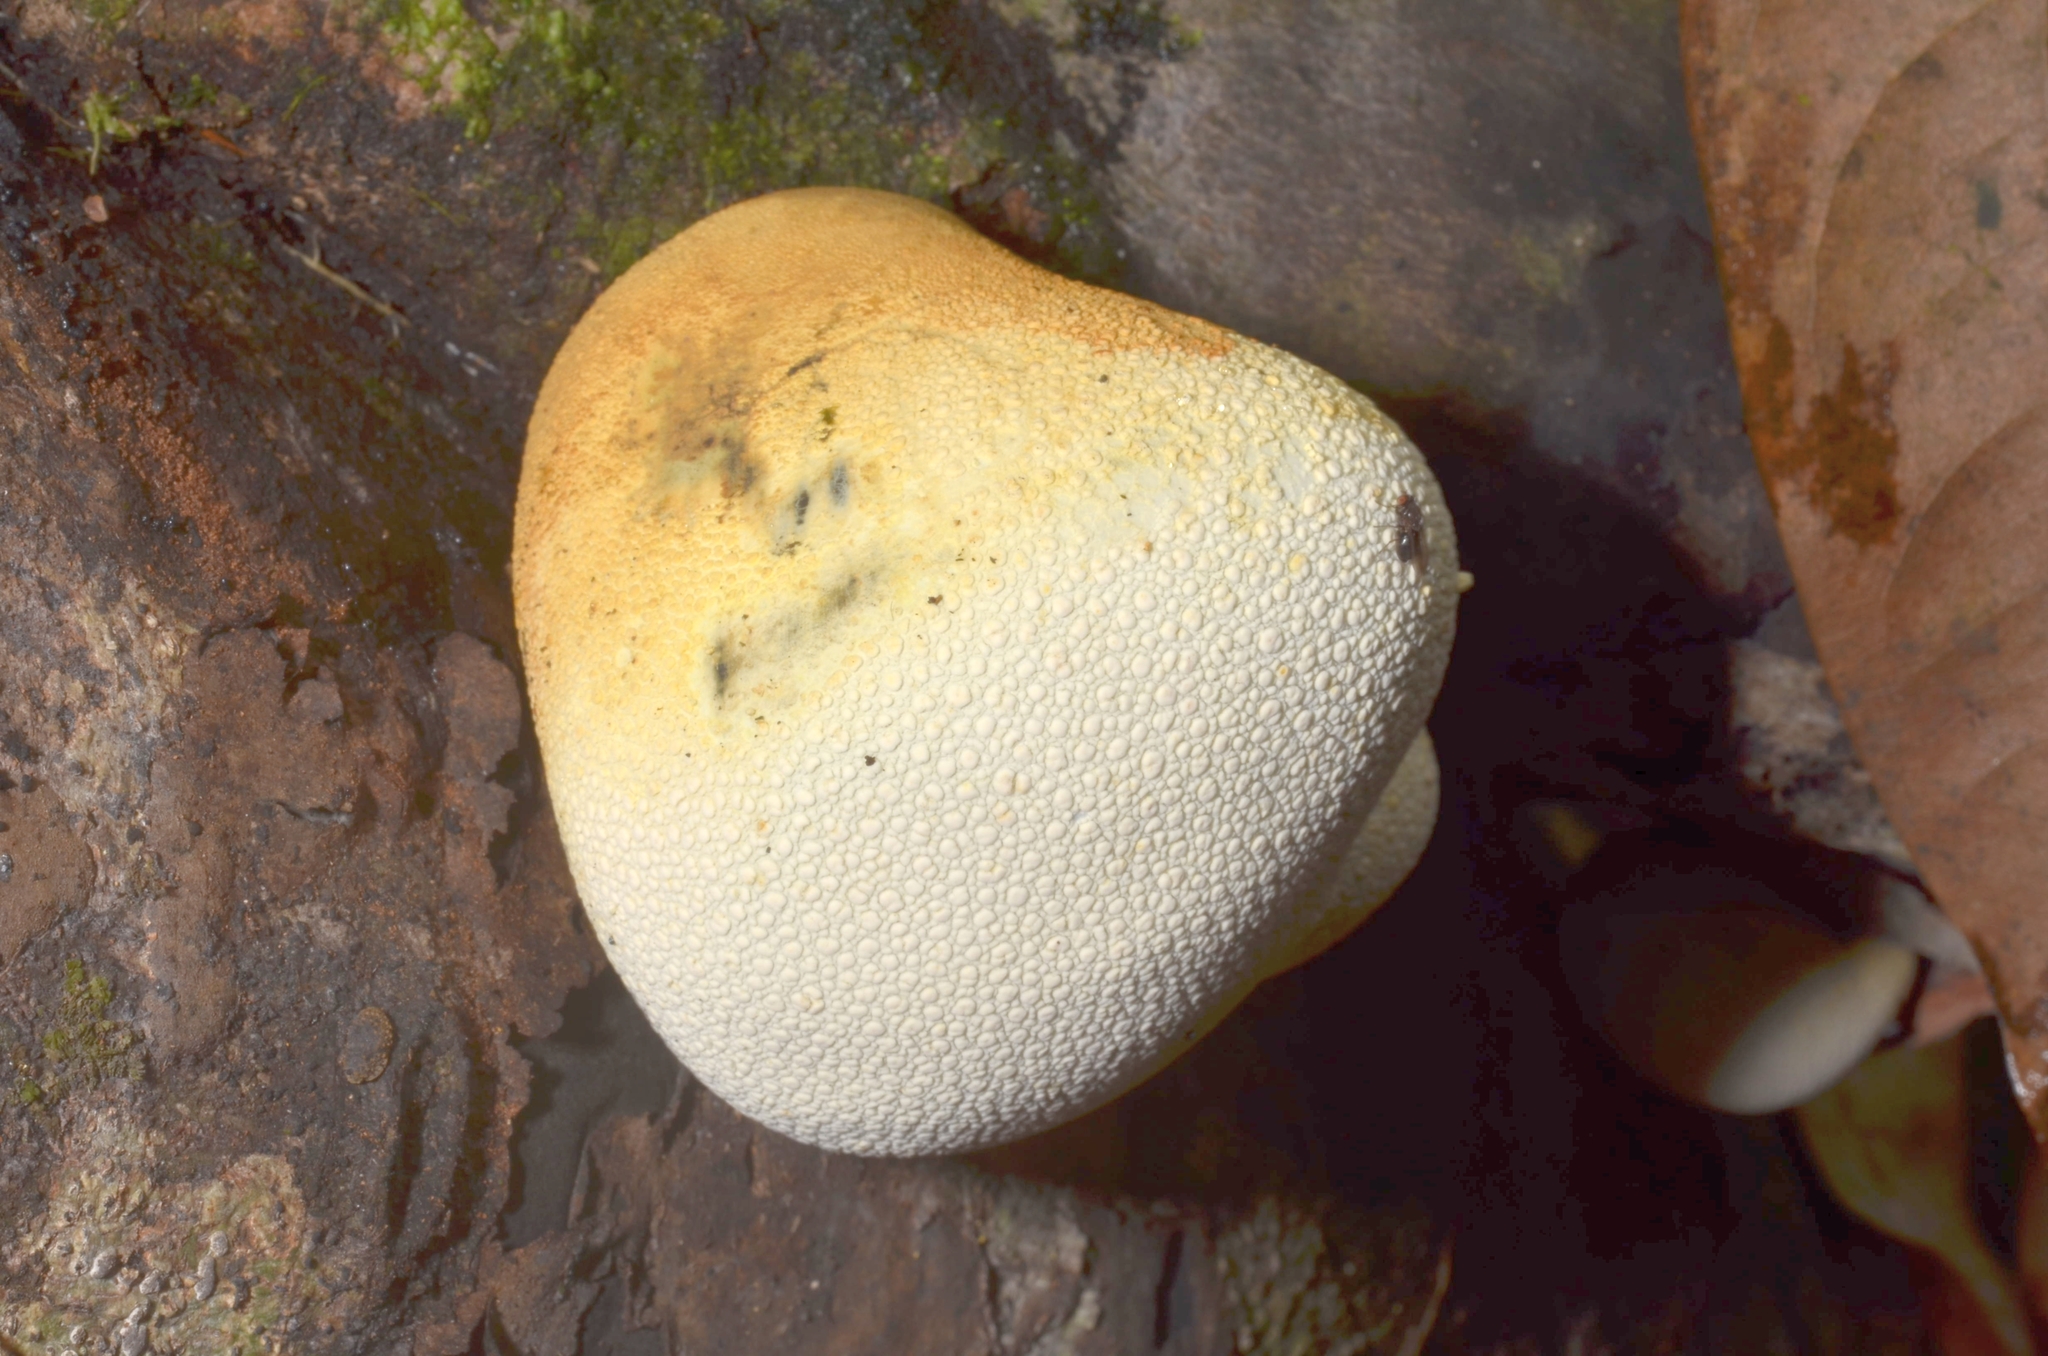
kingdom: Fungi
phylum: Ascomycota
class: Sordariomycetes
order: Xylariales
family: Xylariaceae
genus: Xylaria
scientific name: Xylaria compuncta
